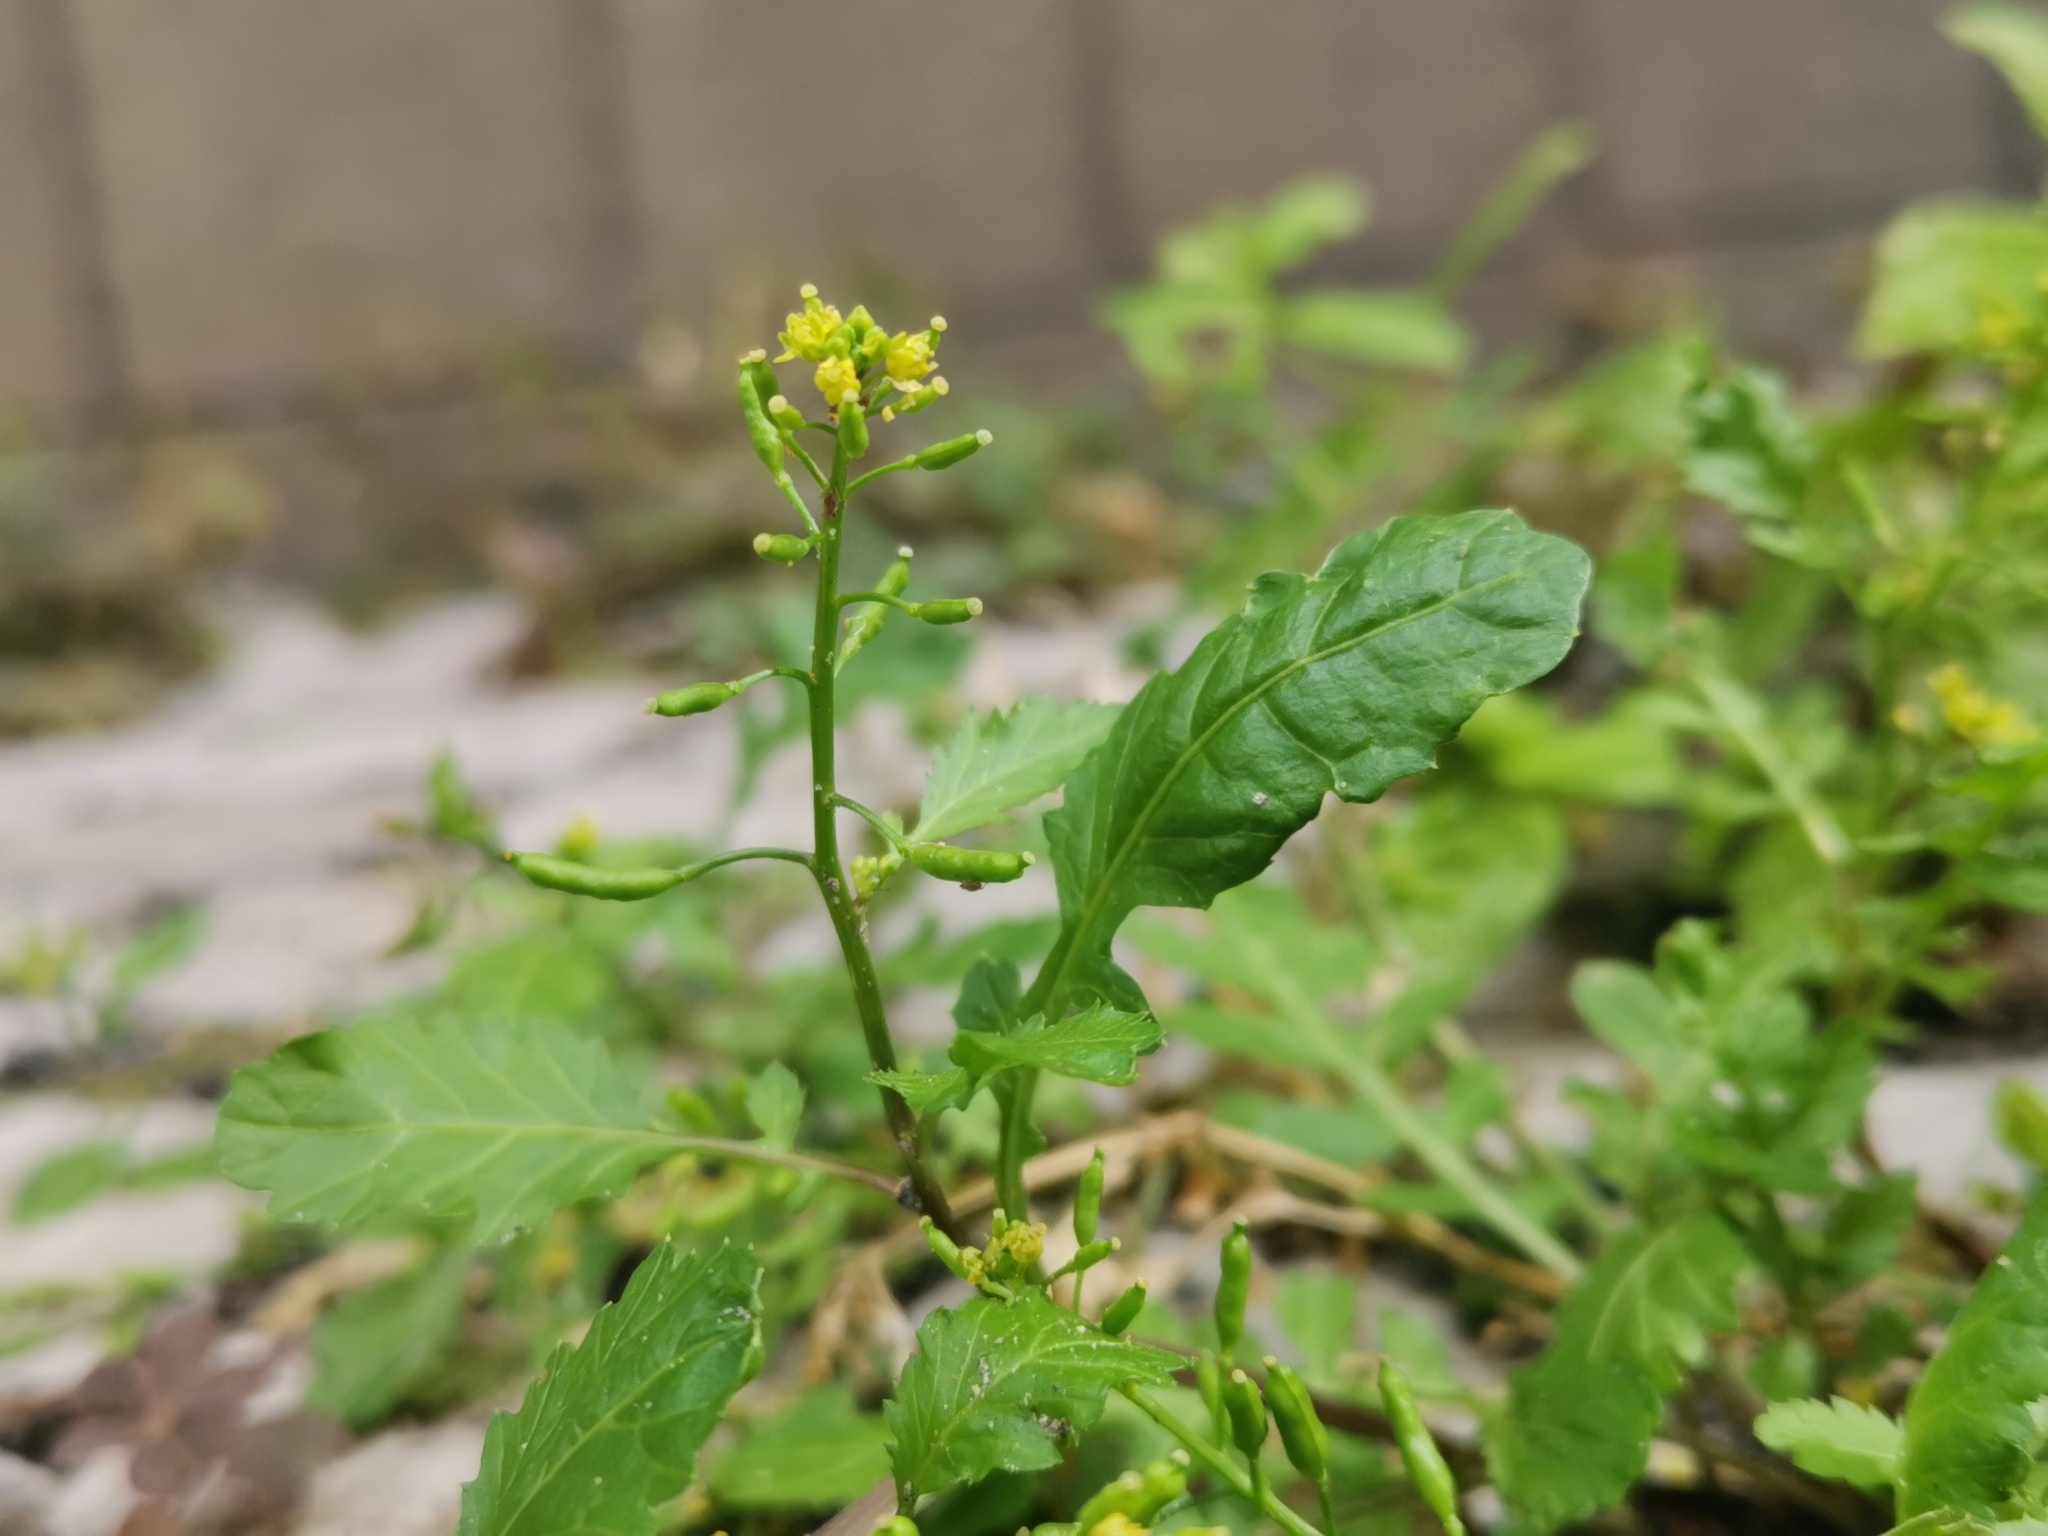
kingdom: Plantae
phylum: Tracheophyta
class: Magnoliopsida
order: Brassicales
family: Brassicaceae
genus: Rorippa
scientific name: Rorippa palustris
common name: Marsh yellow-cress
